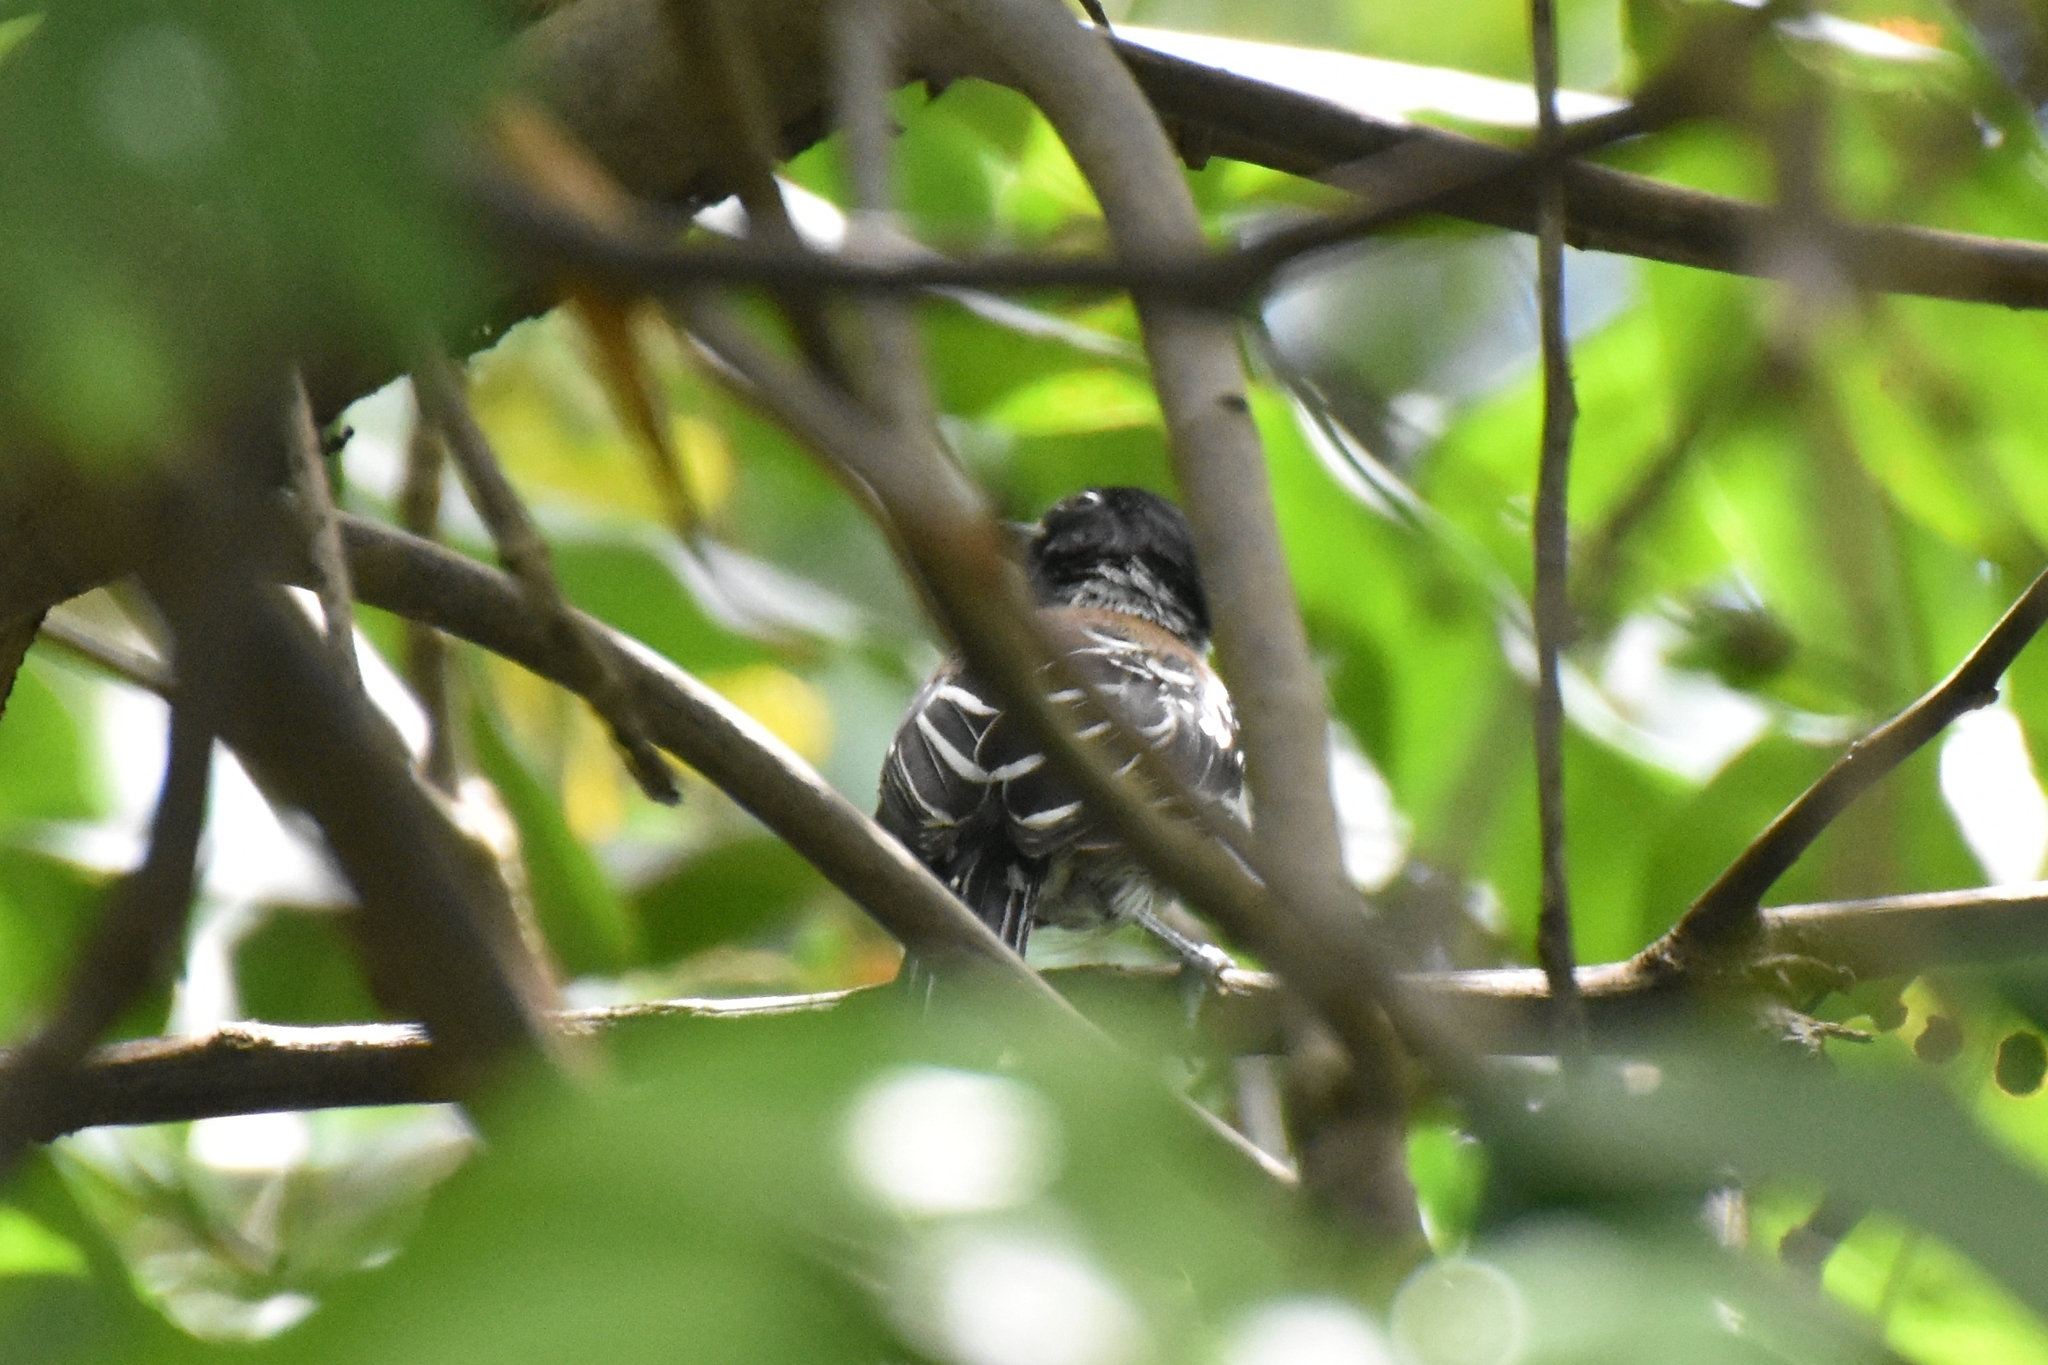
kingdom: Animalia
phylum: Chordata
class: Aves
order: Passeriformes
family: Thamnophilidae
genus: Sakesphorus
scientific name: Sakesphorus canadensis
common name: Black-crested antshrike
